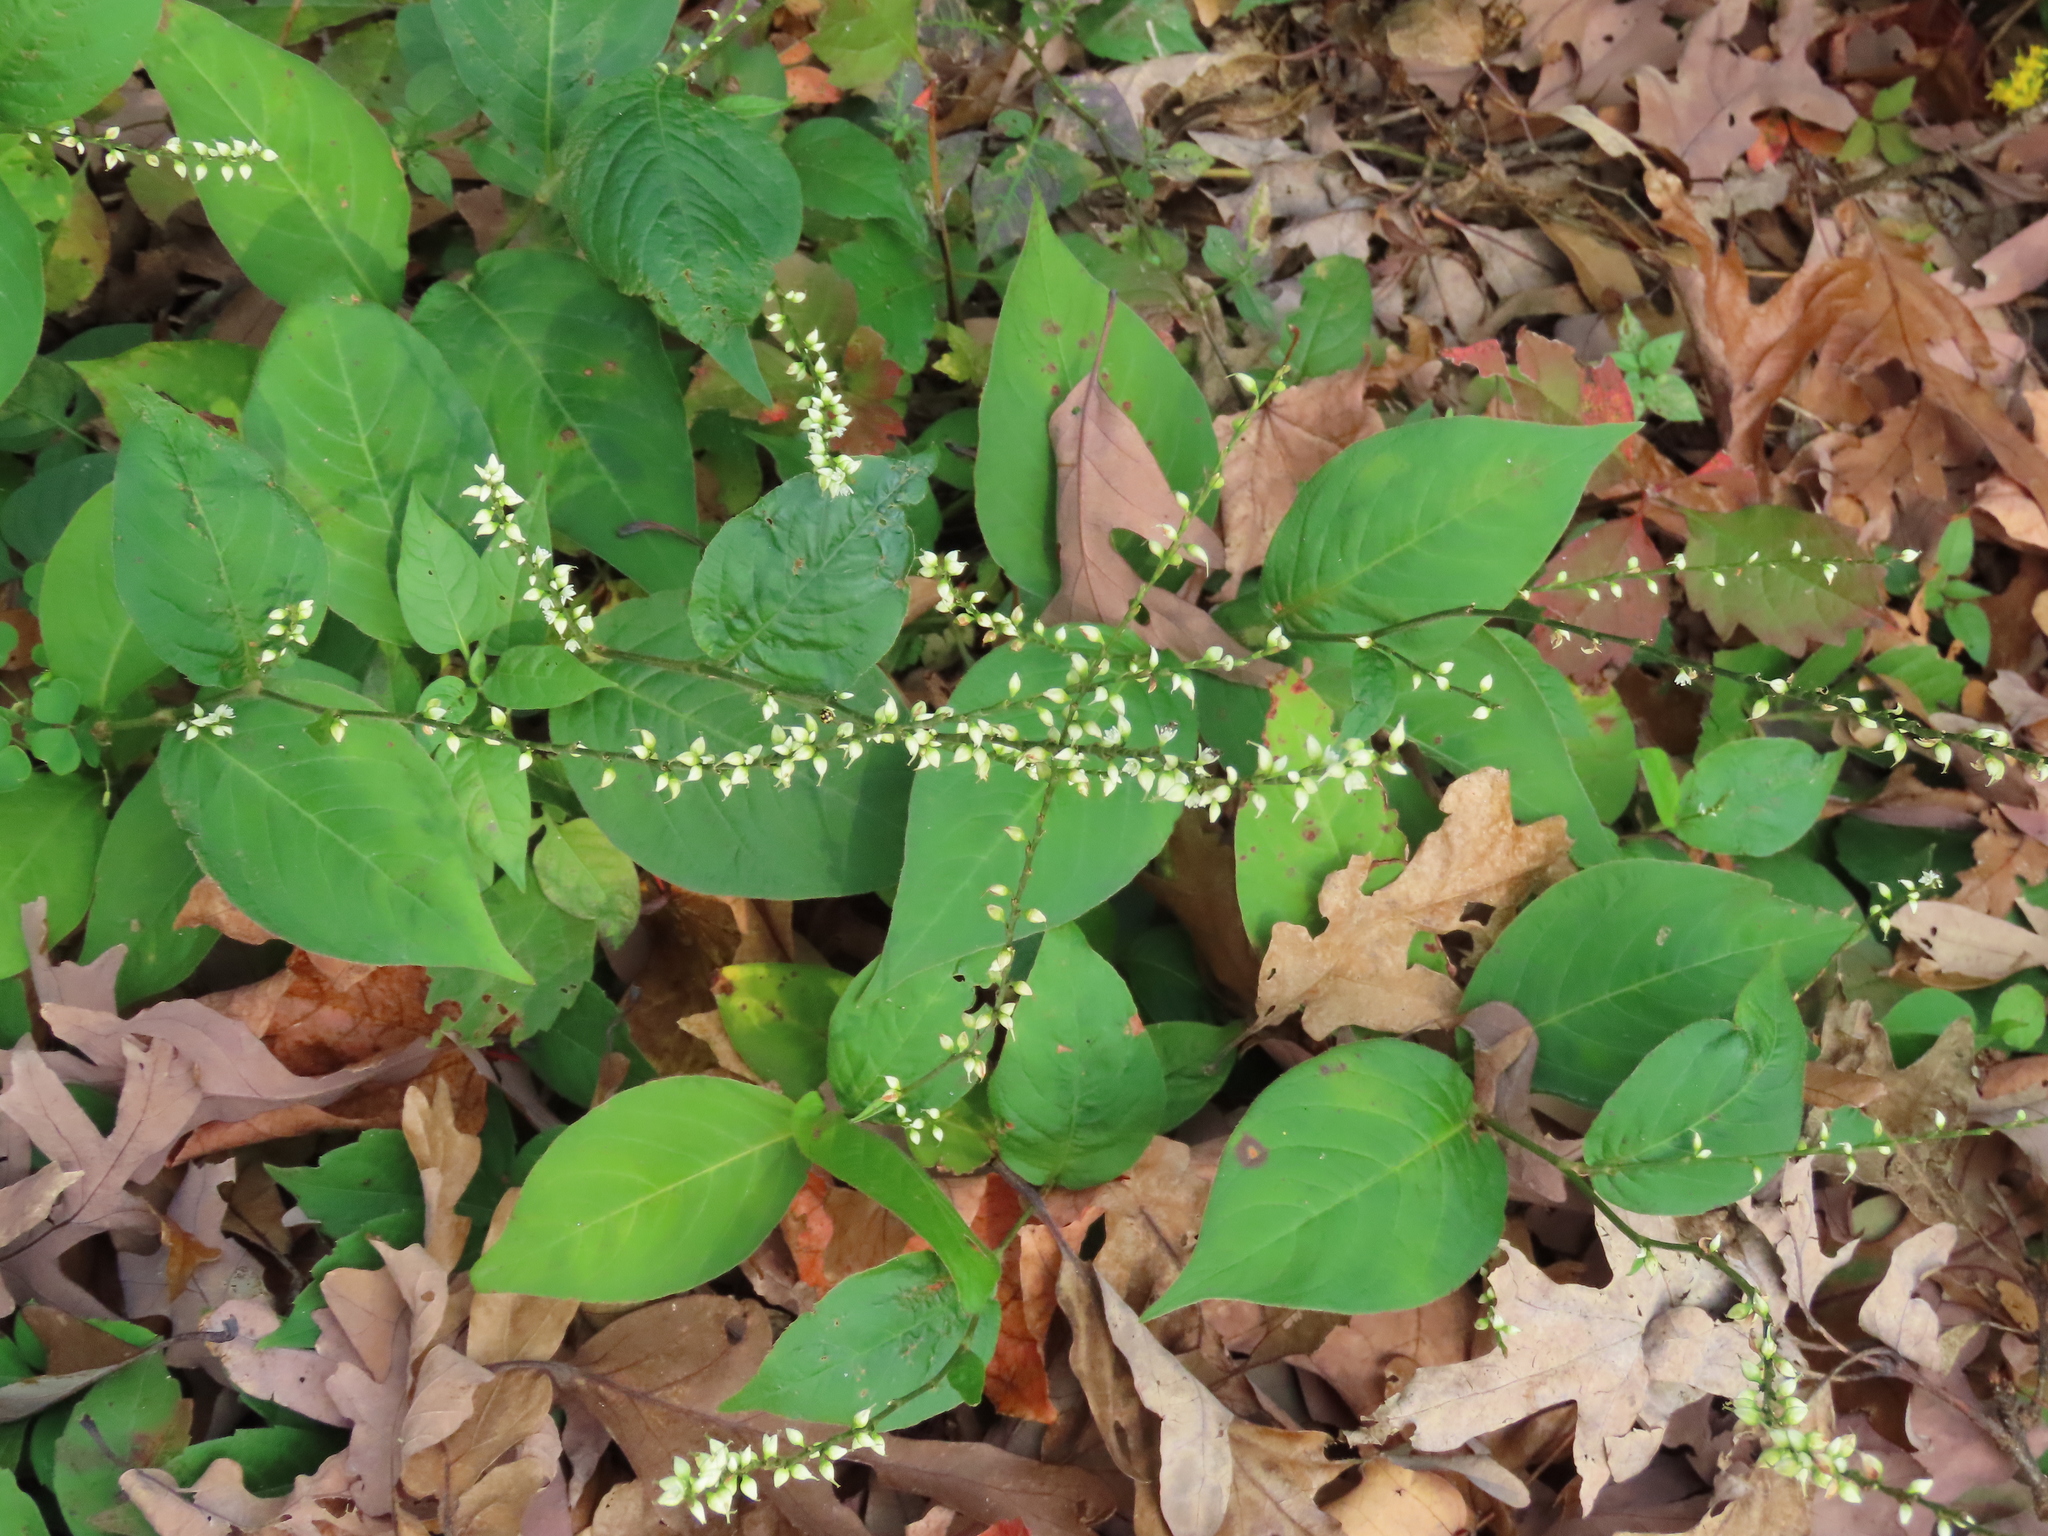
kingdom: Plantae
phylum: Tracheophyta
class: Magnoliopsida
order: Caryophyllales
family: Polygonaceae
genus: Persicaria
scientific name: Persicaria virginiana
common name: Jumpseed
